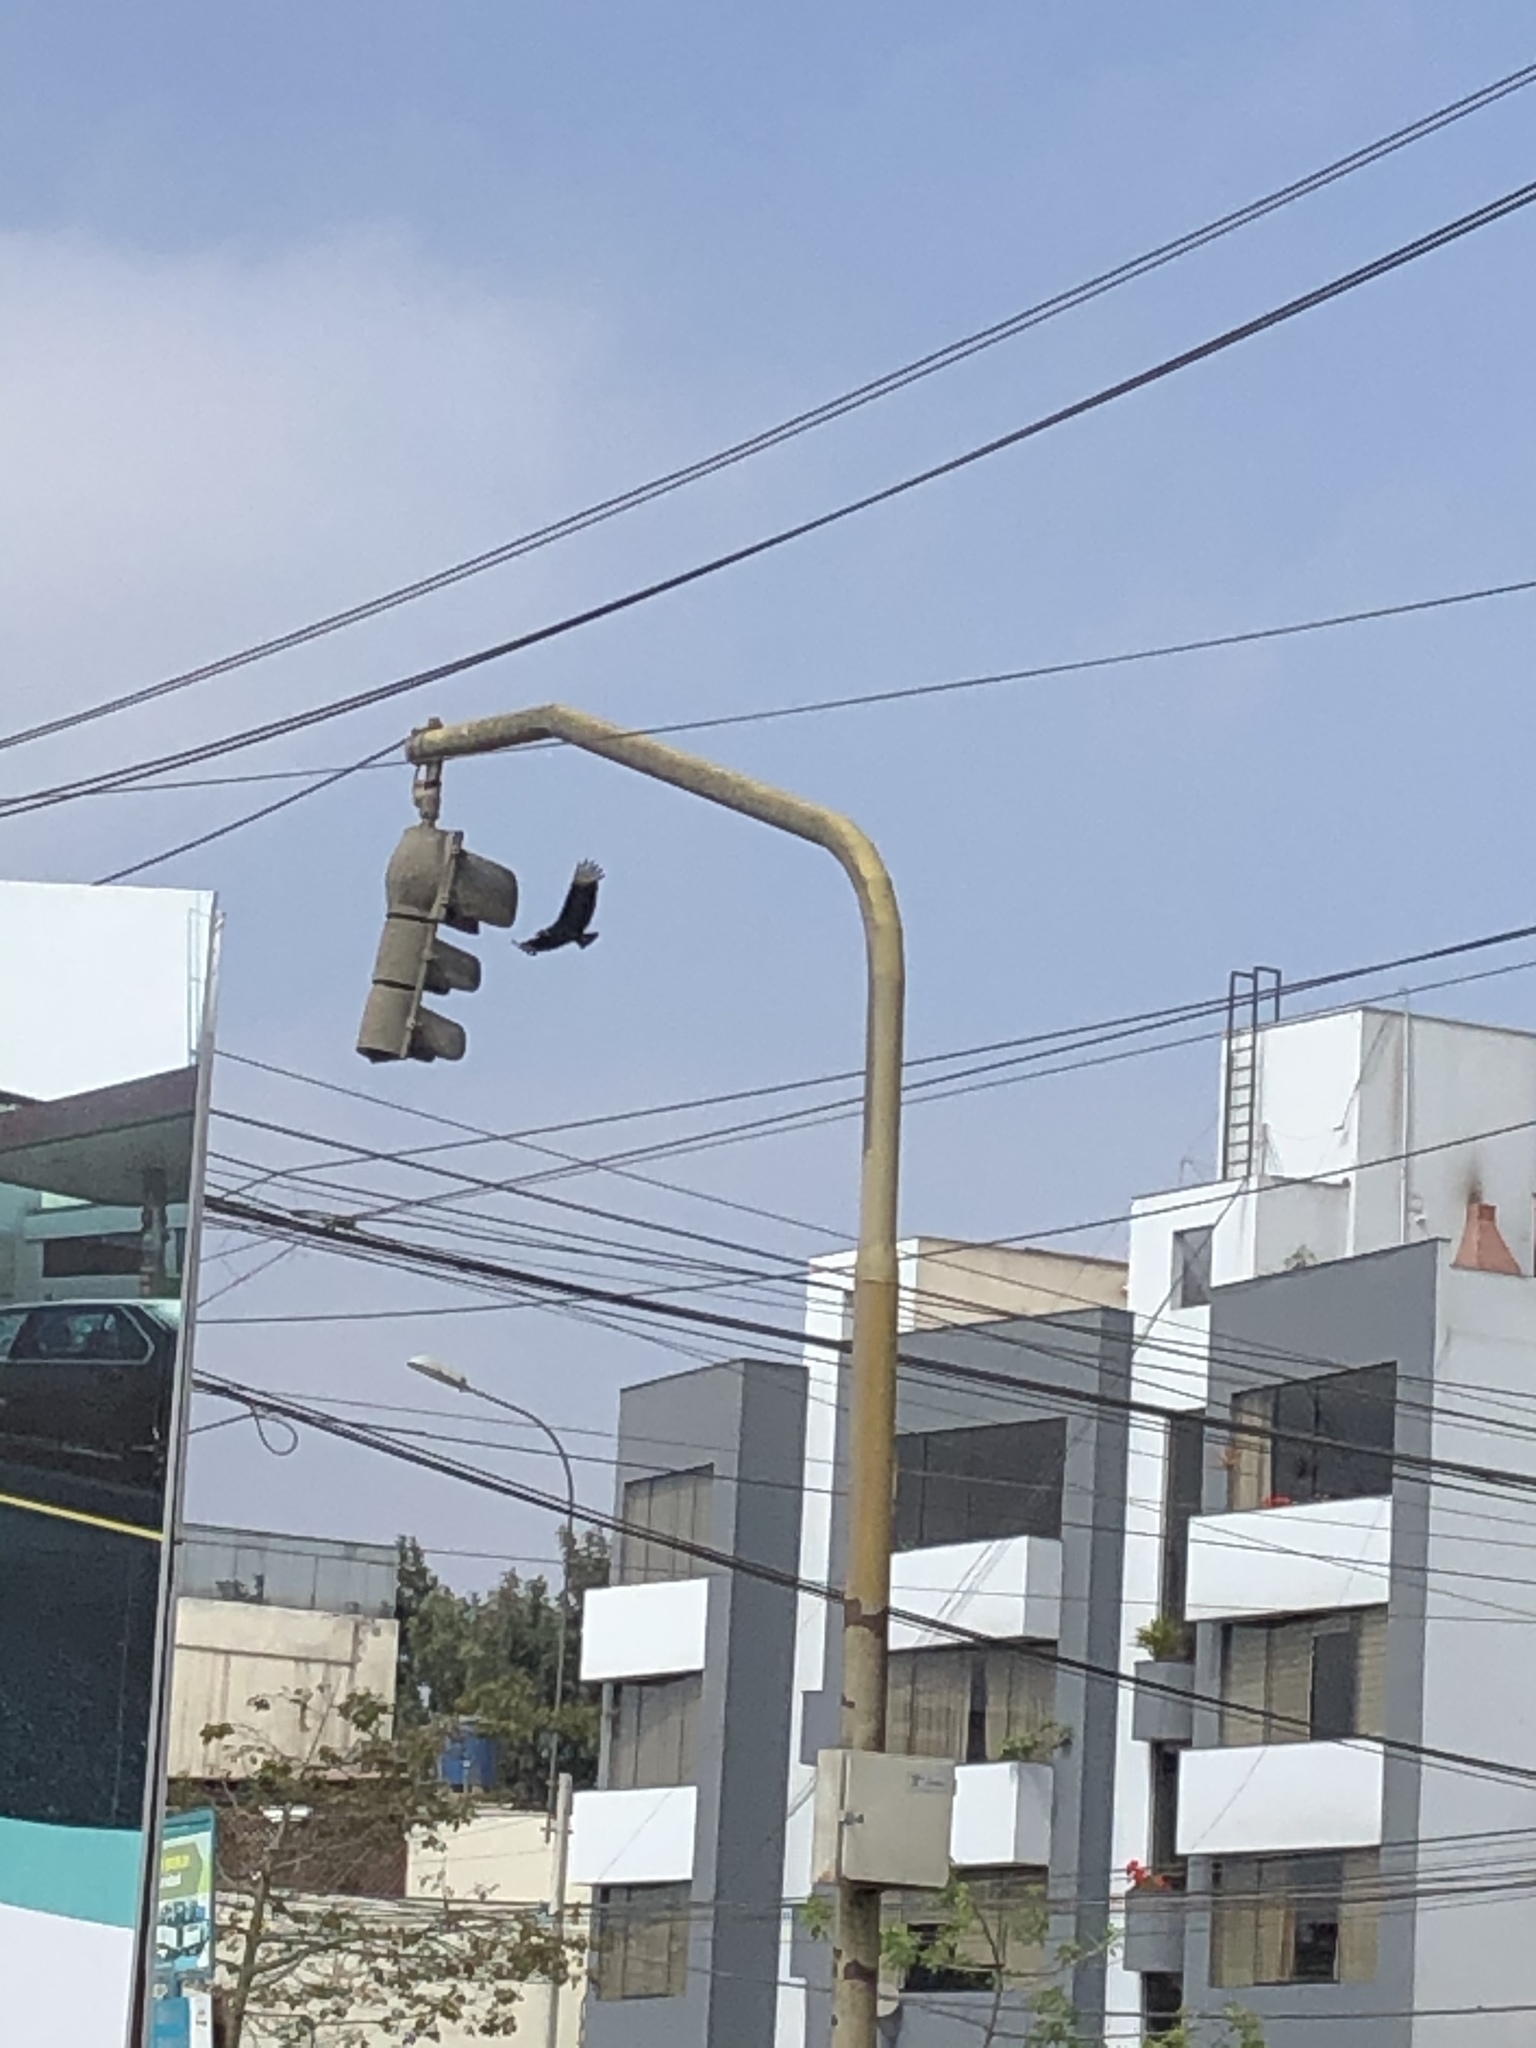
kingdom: Animalia
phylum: Chordata
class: Aves
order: Accipitriformes
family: Cathartidae
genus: Coragyps
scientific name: Coragyps atratus
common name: Black vulture
